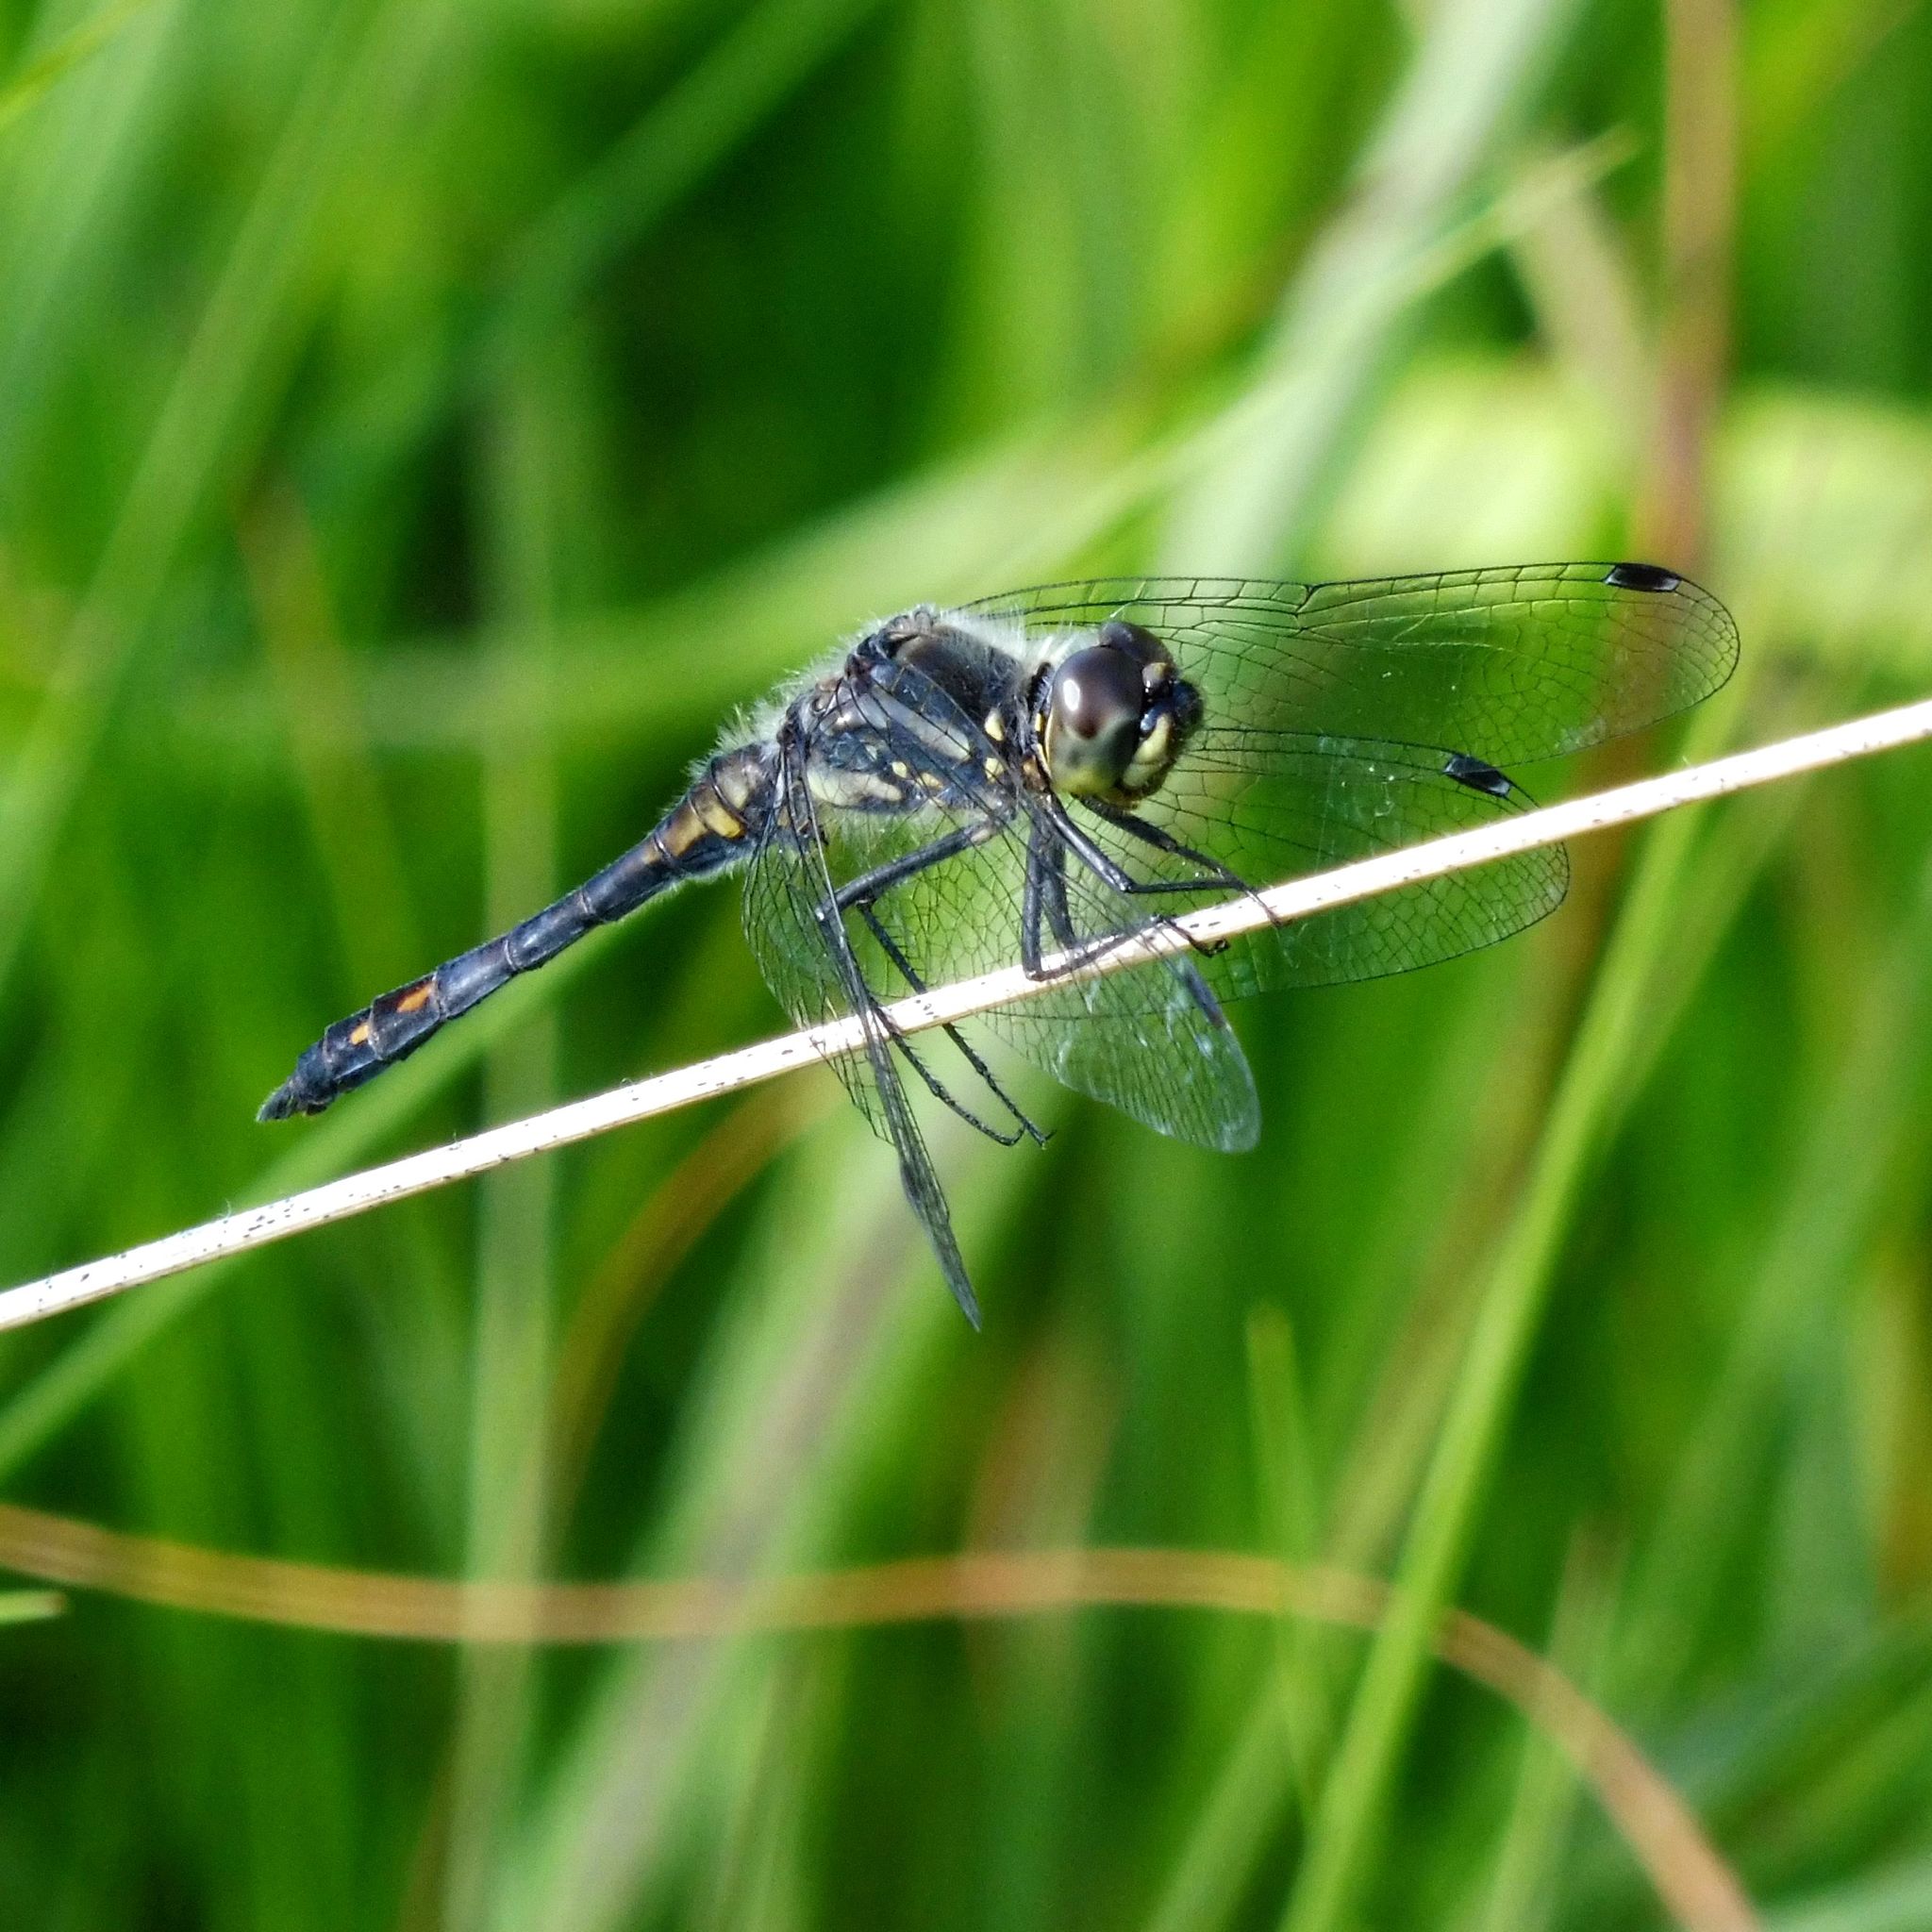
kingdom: Animalia
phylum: Arthropoda
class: Insecta
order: Odonata
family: Libellulidae
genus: Sympetrum
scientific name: Sympetrum danae
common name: Black darter
